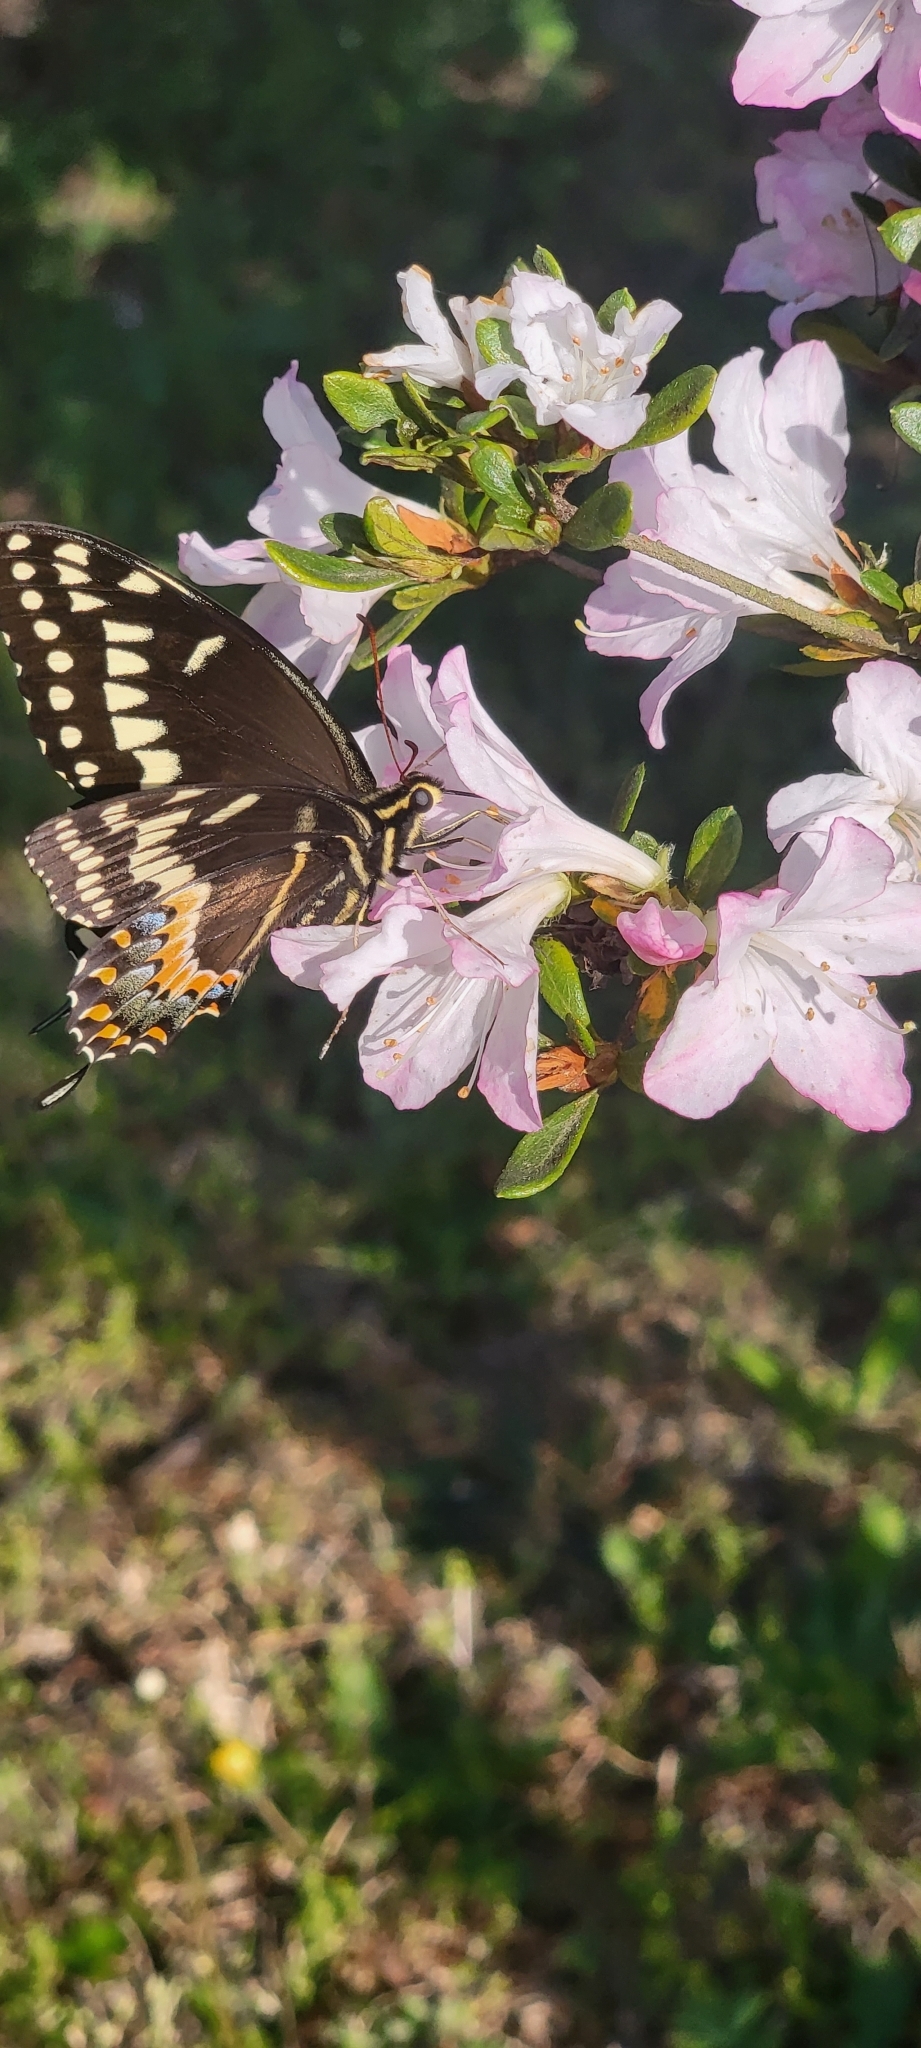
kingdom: Animalia
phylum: Arthropoda
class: Insecta
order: Lepidoptera
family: Papilionidae
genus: Papilio
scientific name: Papilio palamedes
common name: Palamedes swallowtail
